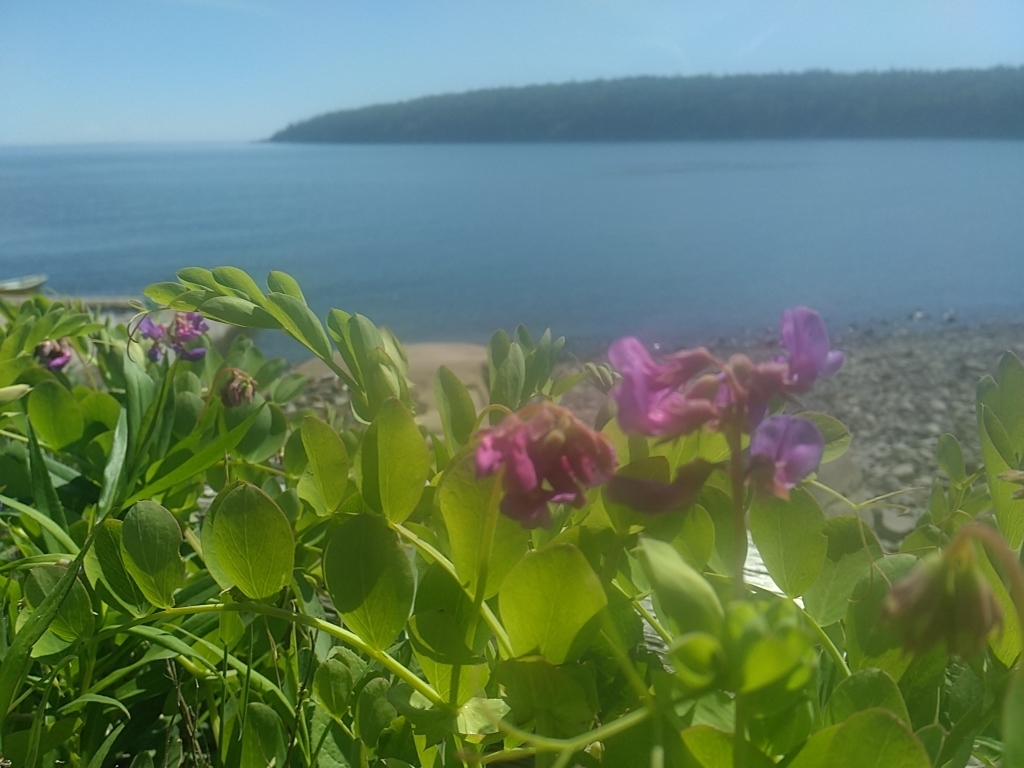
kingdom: Plantae
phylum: Tracheophyta
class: Magnoliopsida
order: Fabales
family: Fabaceae
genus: Lathyrus
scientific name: Lathyrus japonicus
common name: Sea pea
